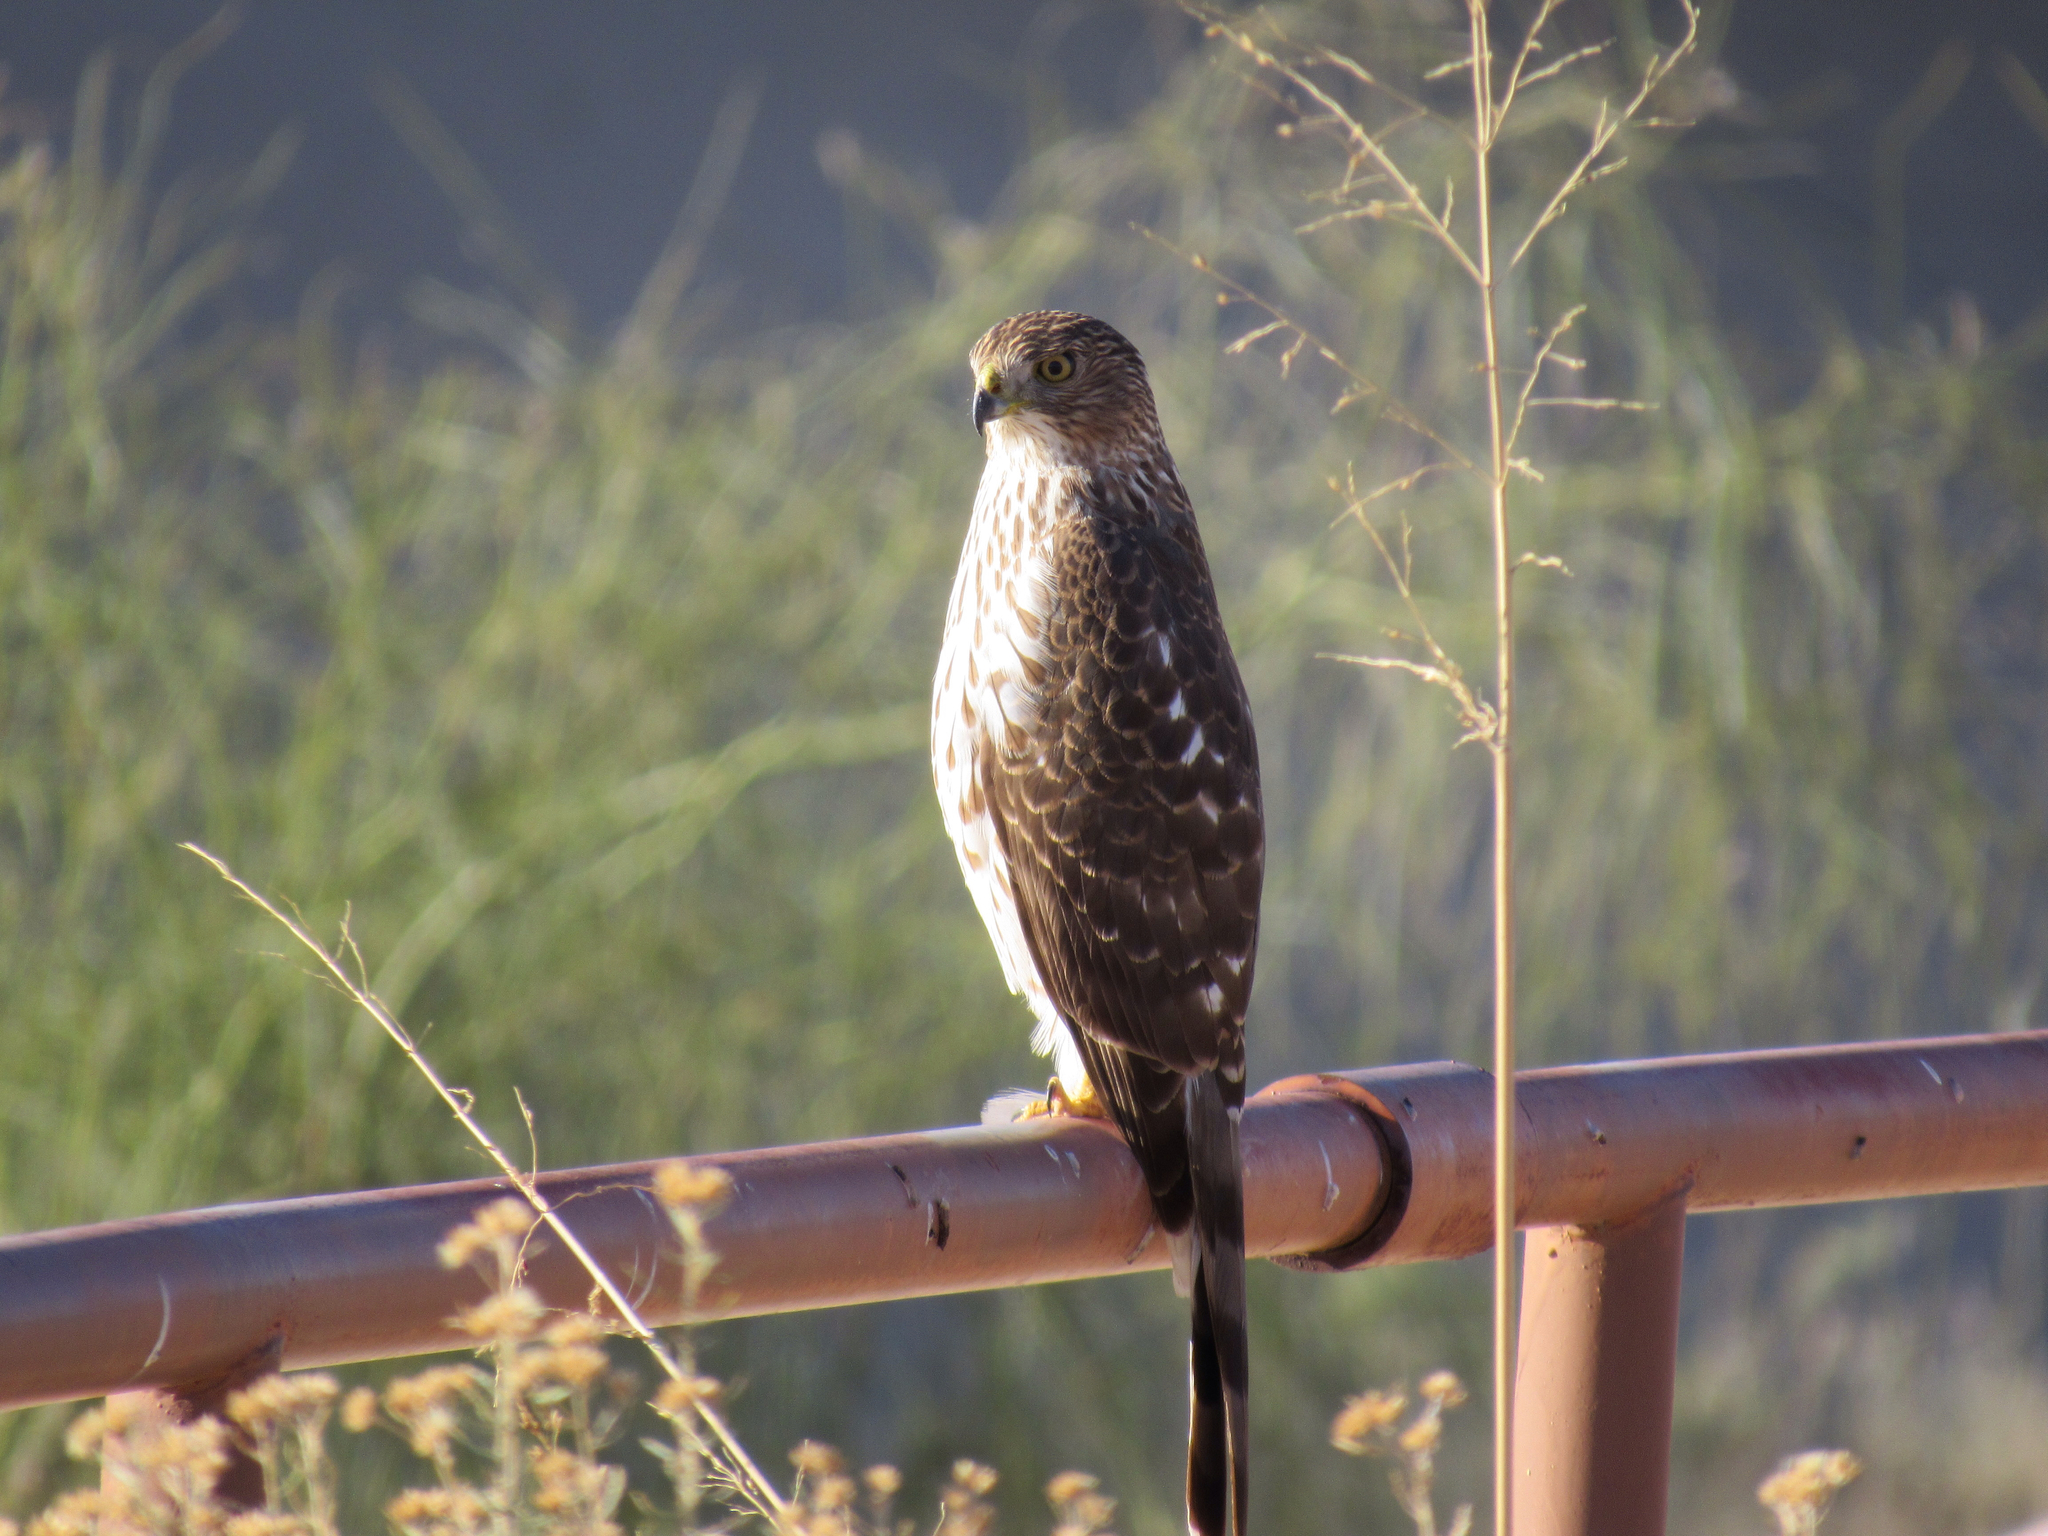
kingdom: Animalia
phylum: Chordata
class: Aves
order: Accipitriformes
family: Accipitridae
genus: Accipiter
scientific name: Accipiter cooperii
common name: Cooper's hawk
